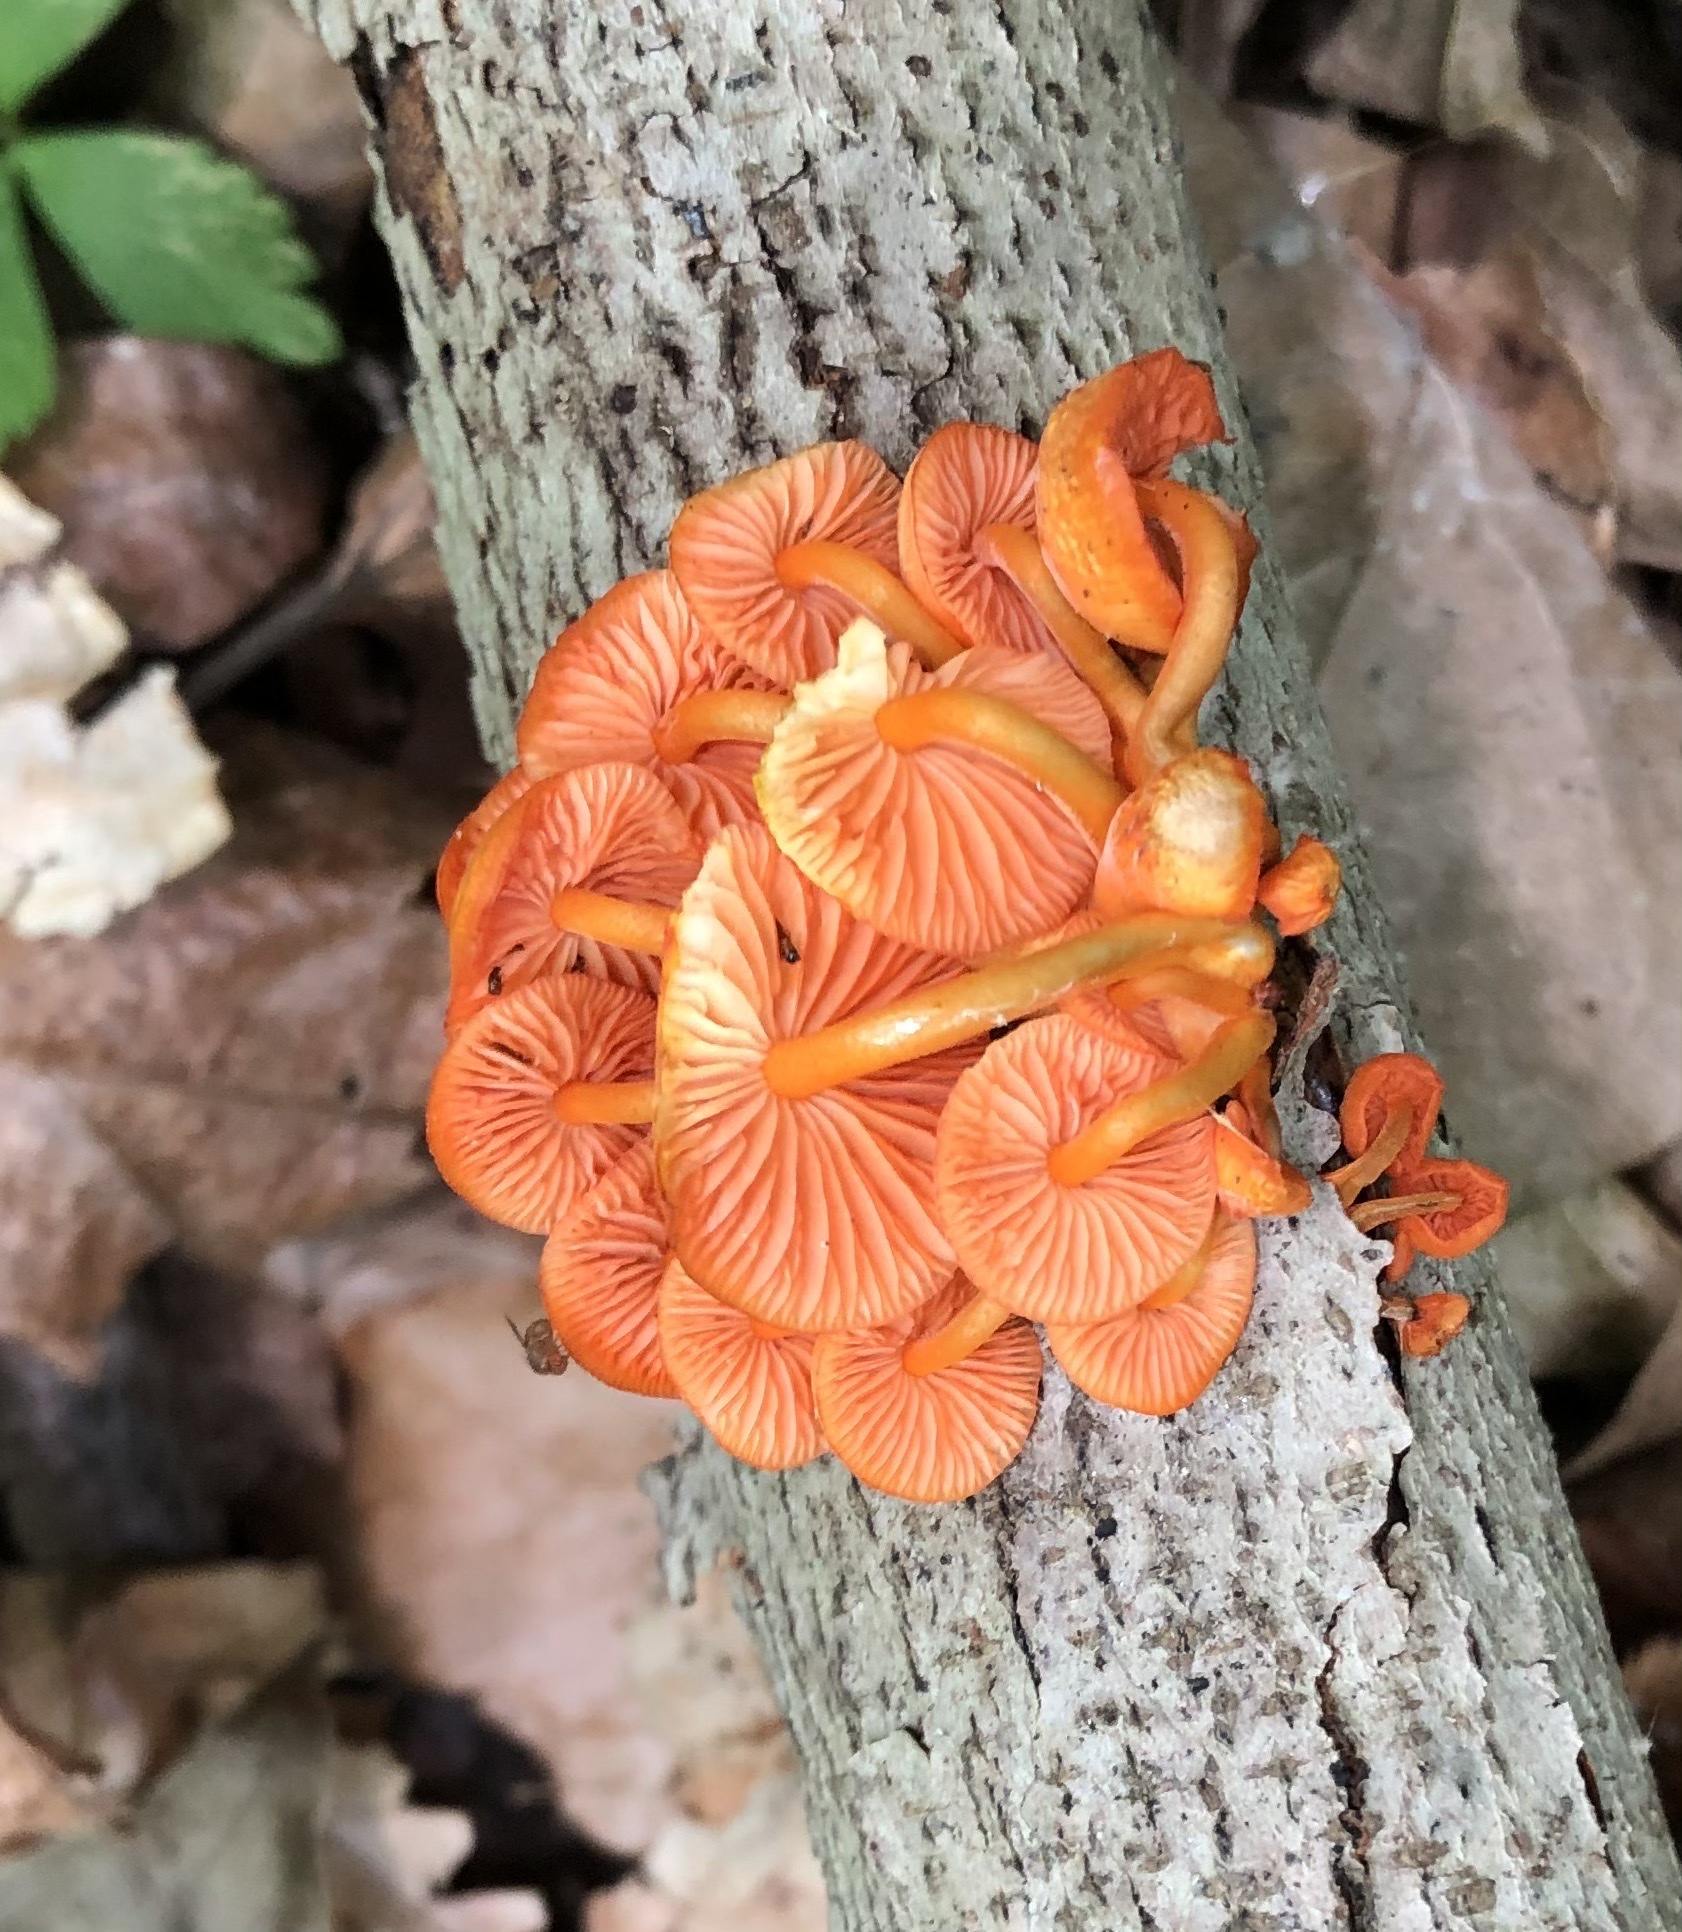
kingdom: Fungi
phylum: Basidiomycota
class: Agaricomycetes
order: Agaricales
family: Mycenaceae
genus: Mycena
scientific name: Mycena leaiana
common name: Orange mycena
